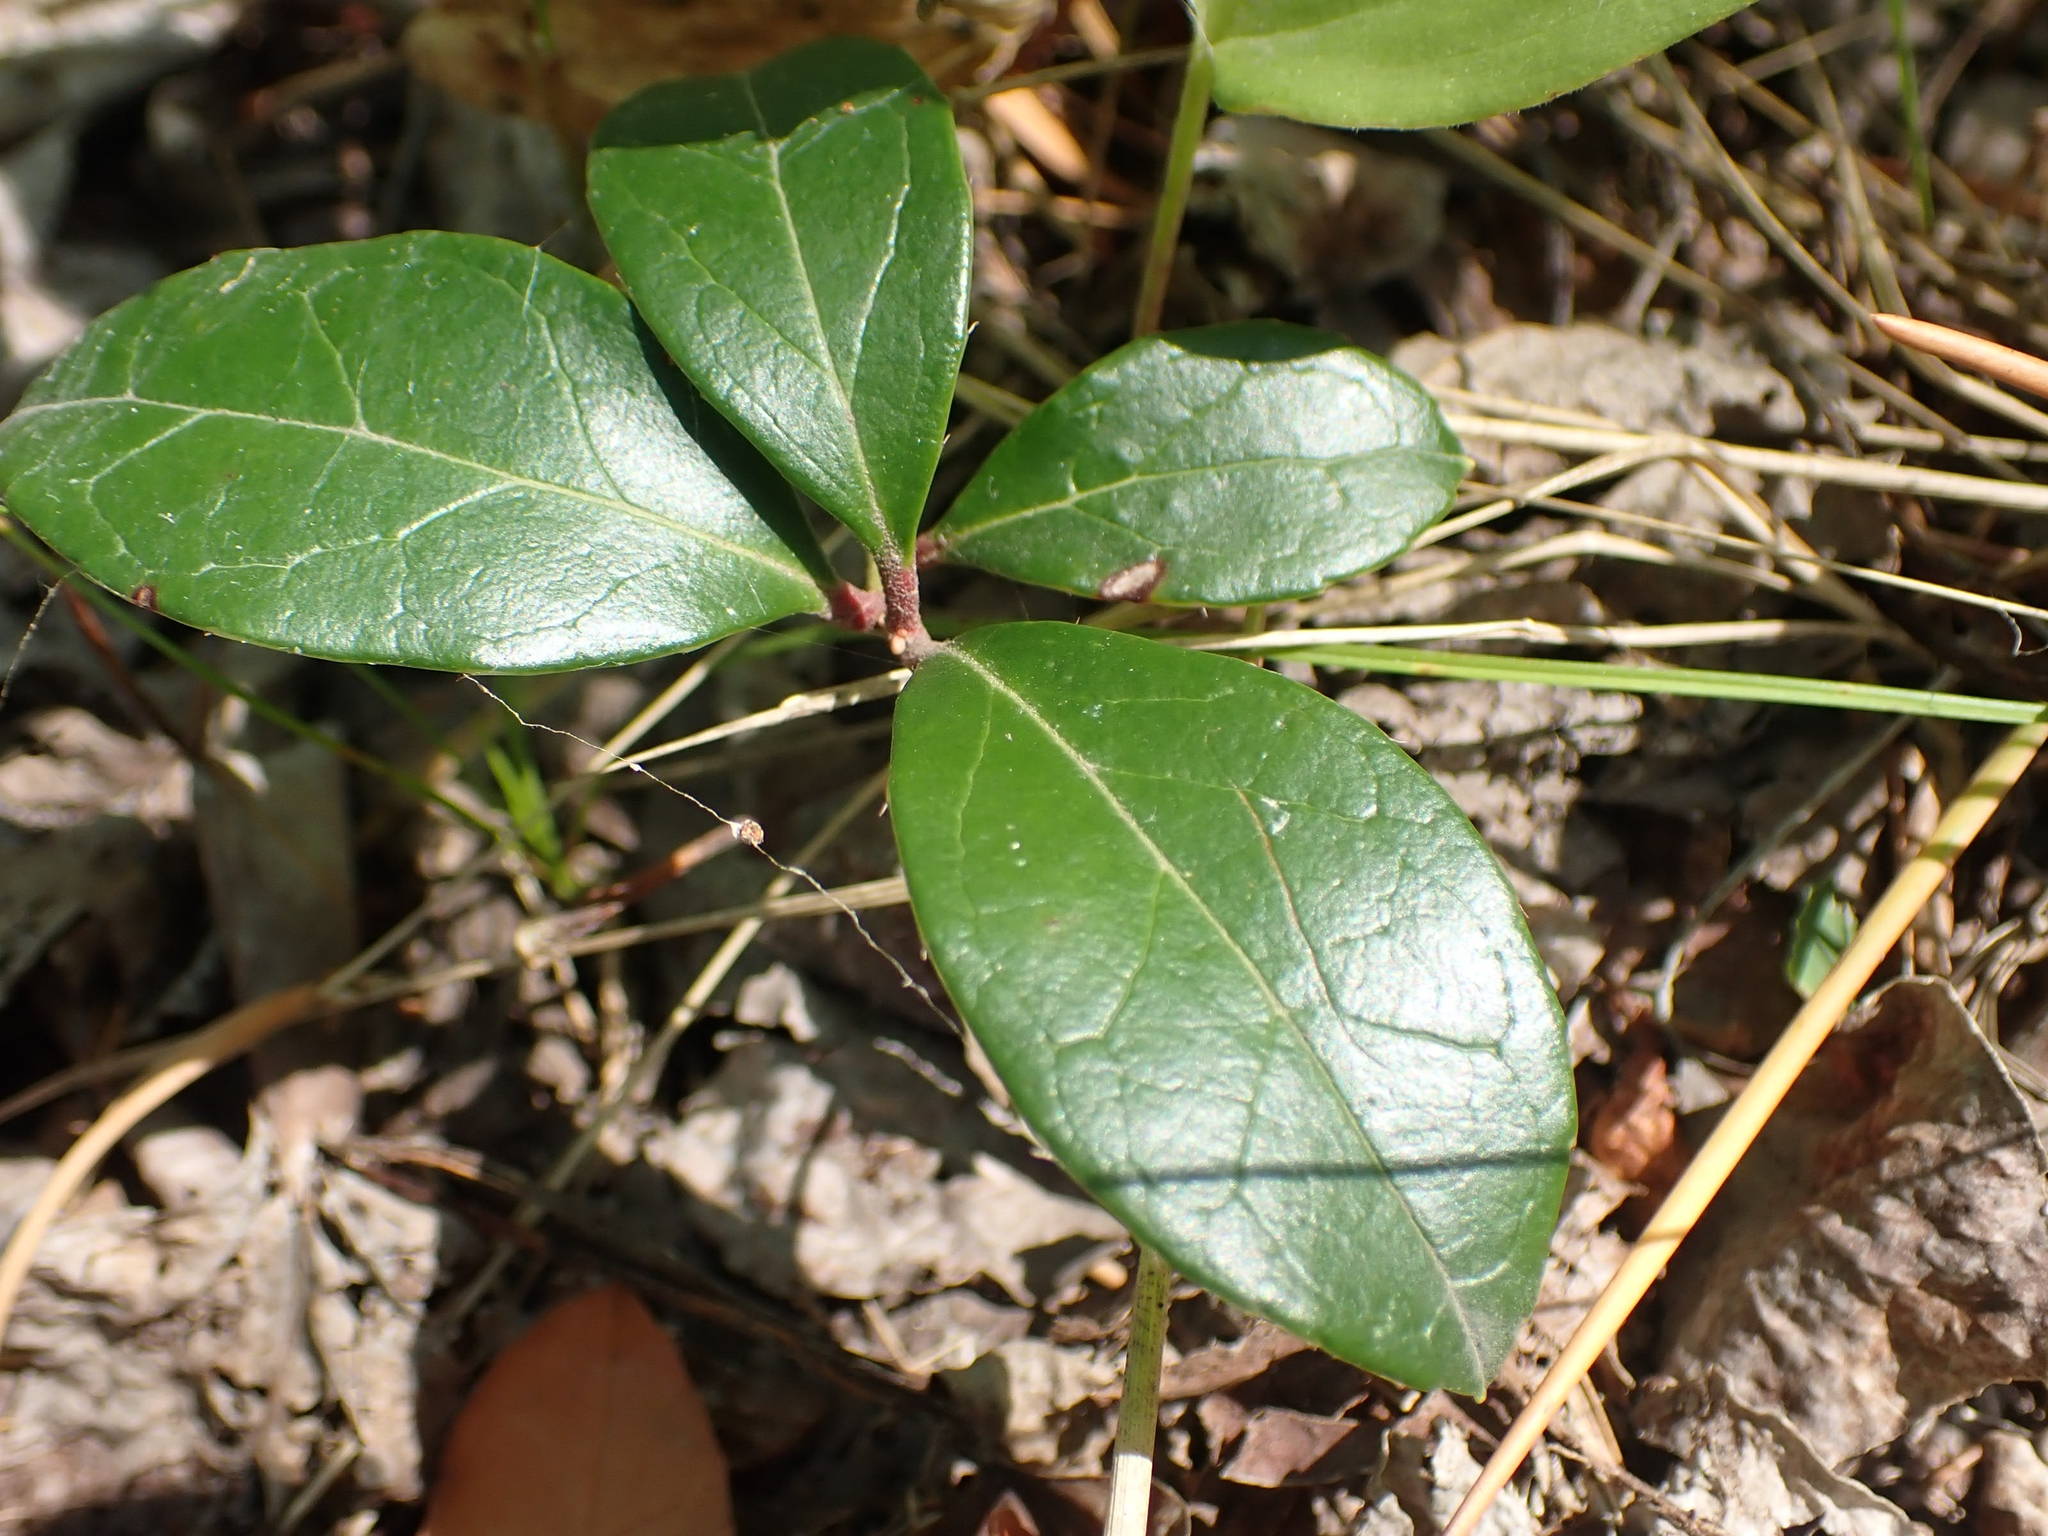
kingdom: Plantae
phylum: Tracheophyta
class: Magnoliopsida
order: Ericales
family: Ericaceae
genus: Gaultheria
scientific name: Gaultheria procumbens
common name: Checkerberry
